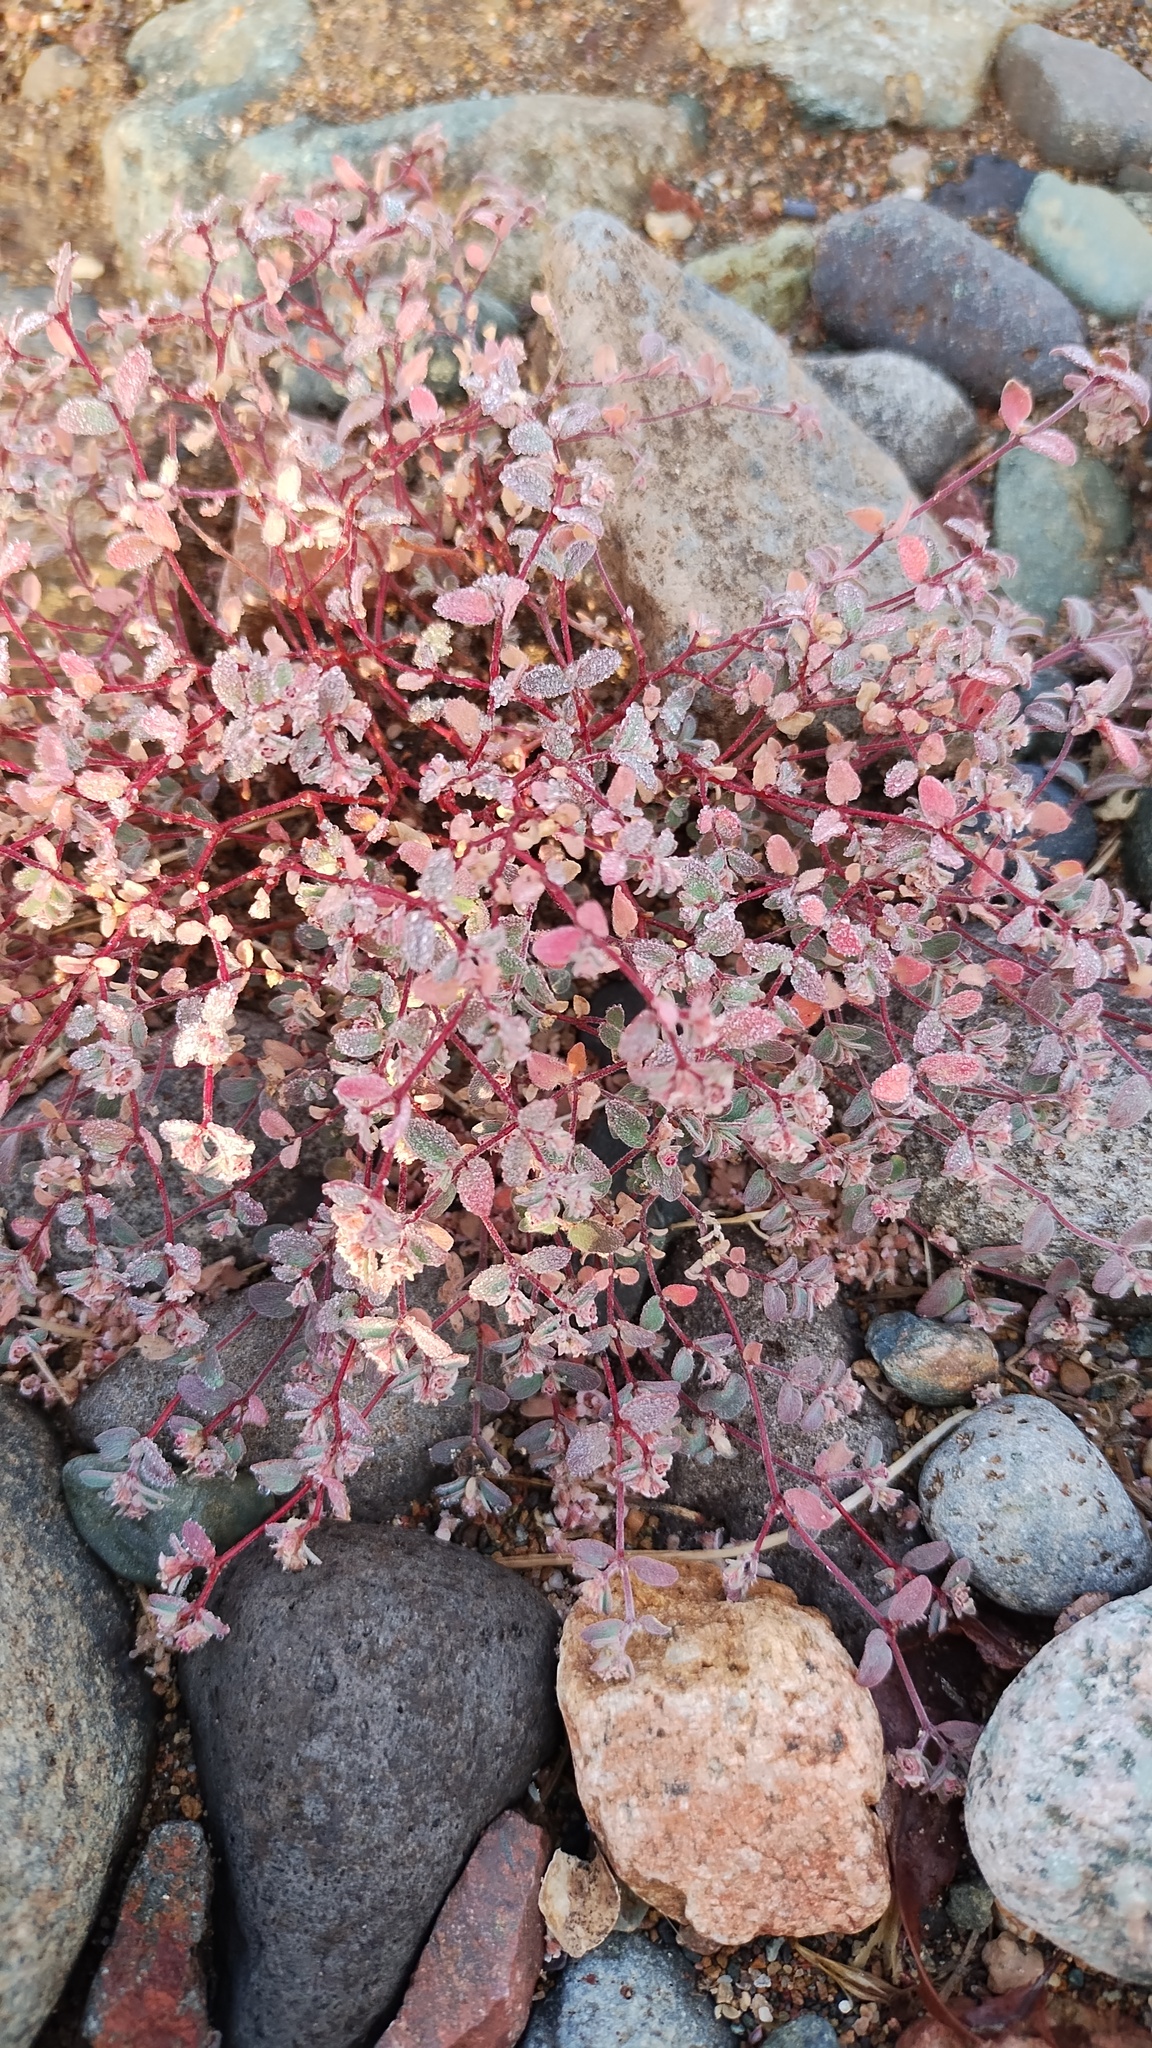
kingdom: Plantae
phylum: Tracheophyta
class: Magnoliopsida
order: Malpighiales
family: Euphorbiaceae
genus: Euphorbia
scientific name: Euphorbia melanadenia
